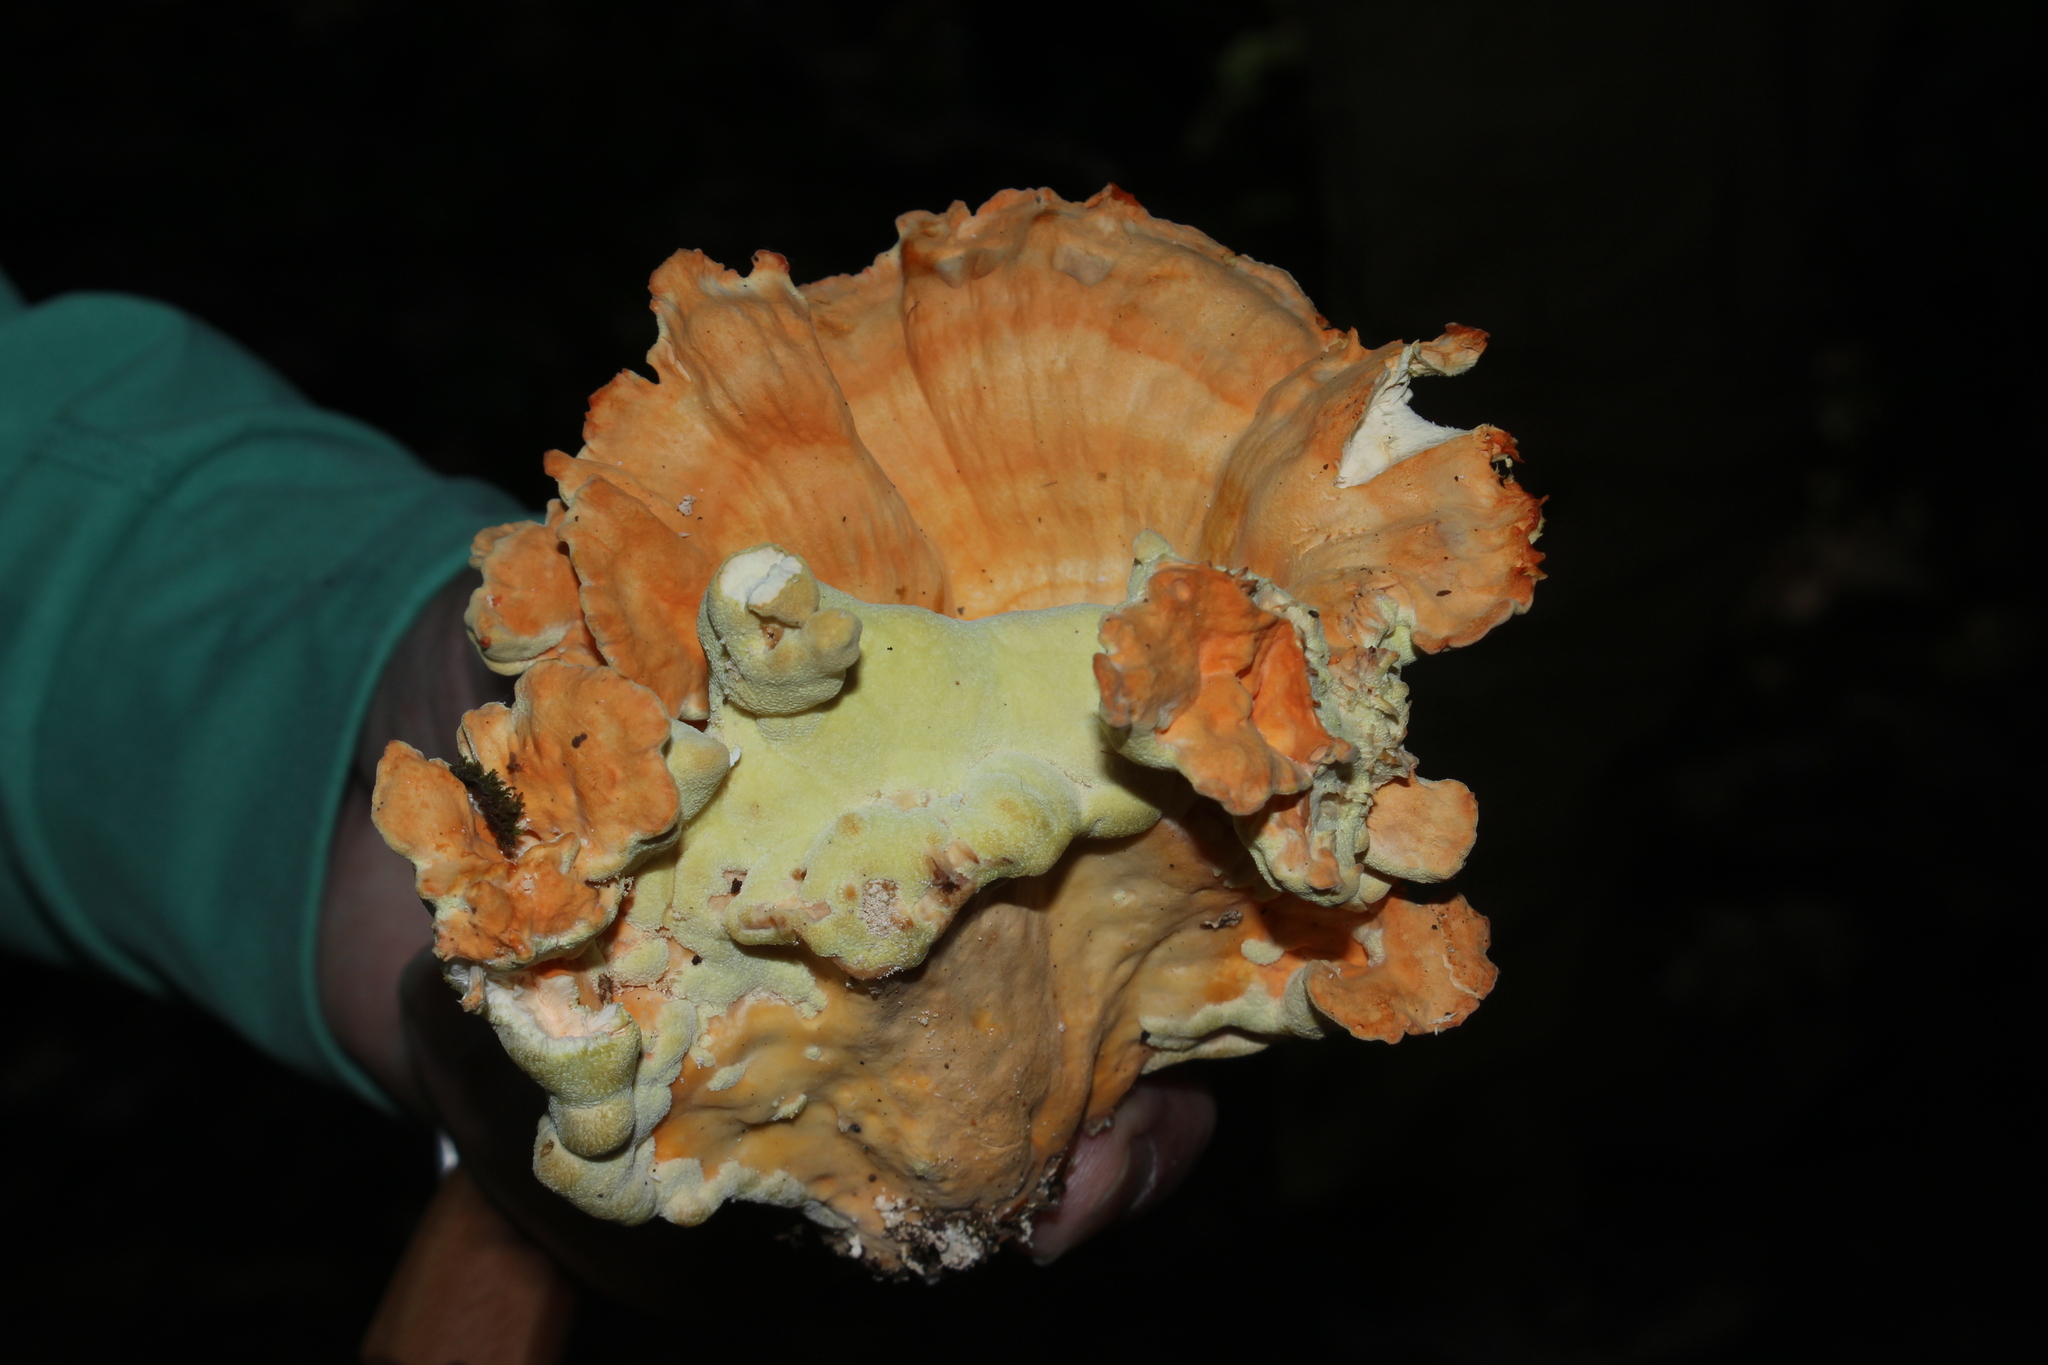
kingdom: Fungi
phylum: Basidiomycota
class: Agaricomycetes
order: Polyporales
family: Laetiporaceae
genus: Laetiporus
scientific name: Laetiporus sulphureus
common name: Chicken of the woods
